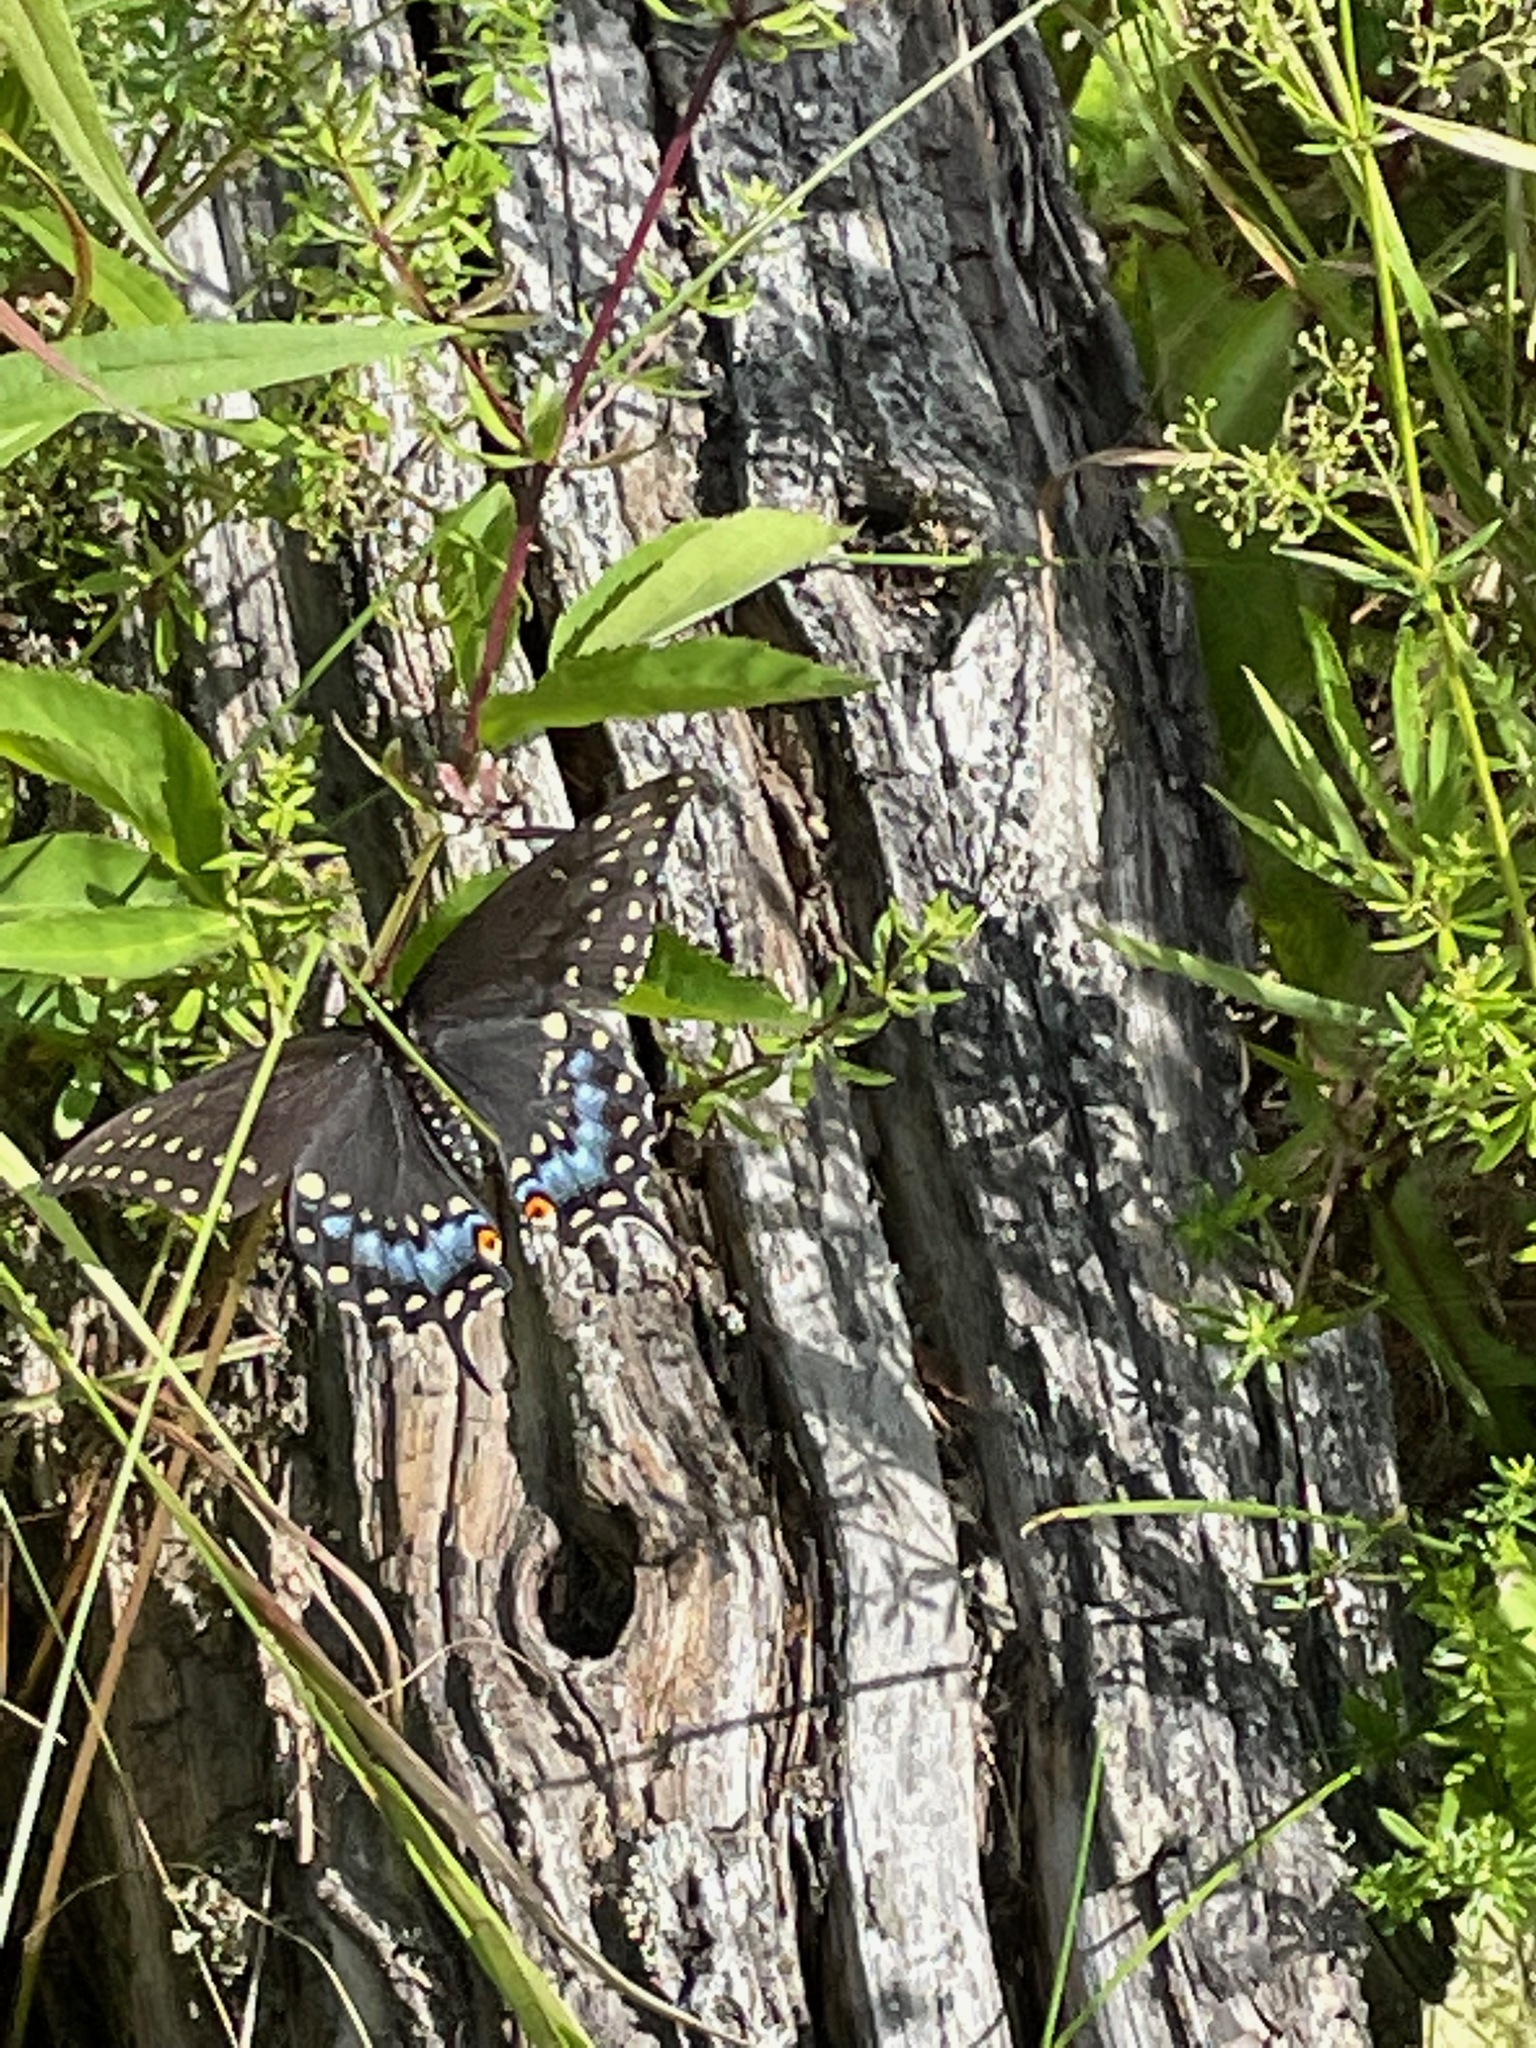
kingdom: Animalia
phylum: Arthropoda
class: Insecta
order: Lepidoptera
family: Papilionidae
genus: Papilio
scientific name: Papilio polyxenes
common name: Black swallowtail
